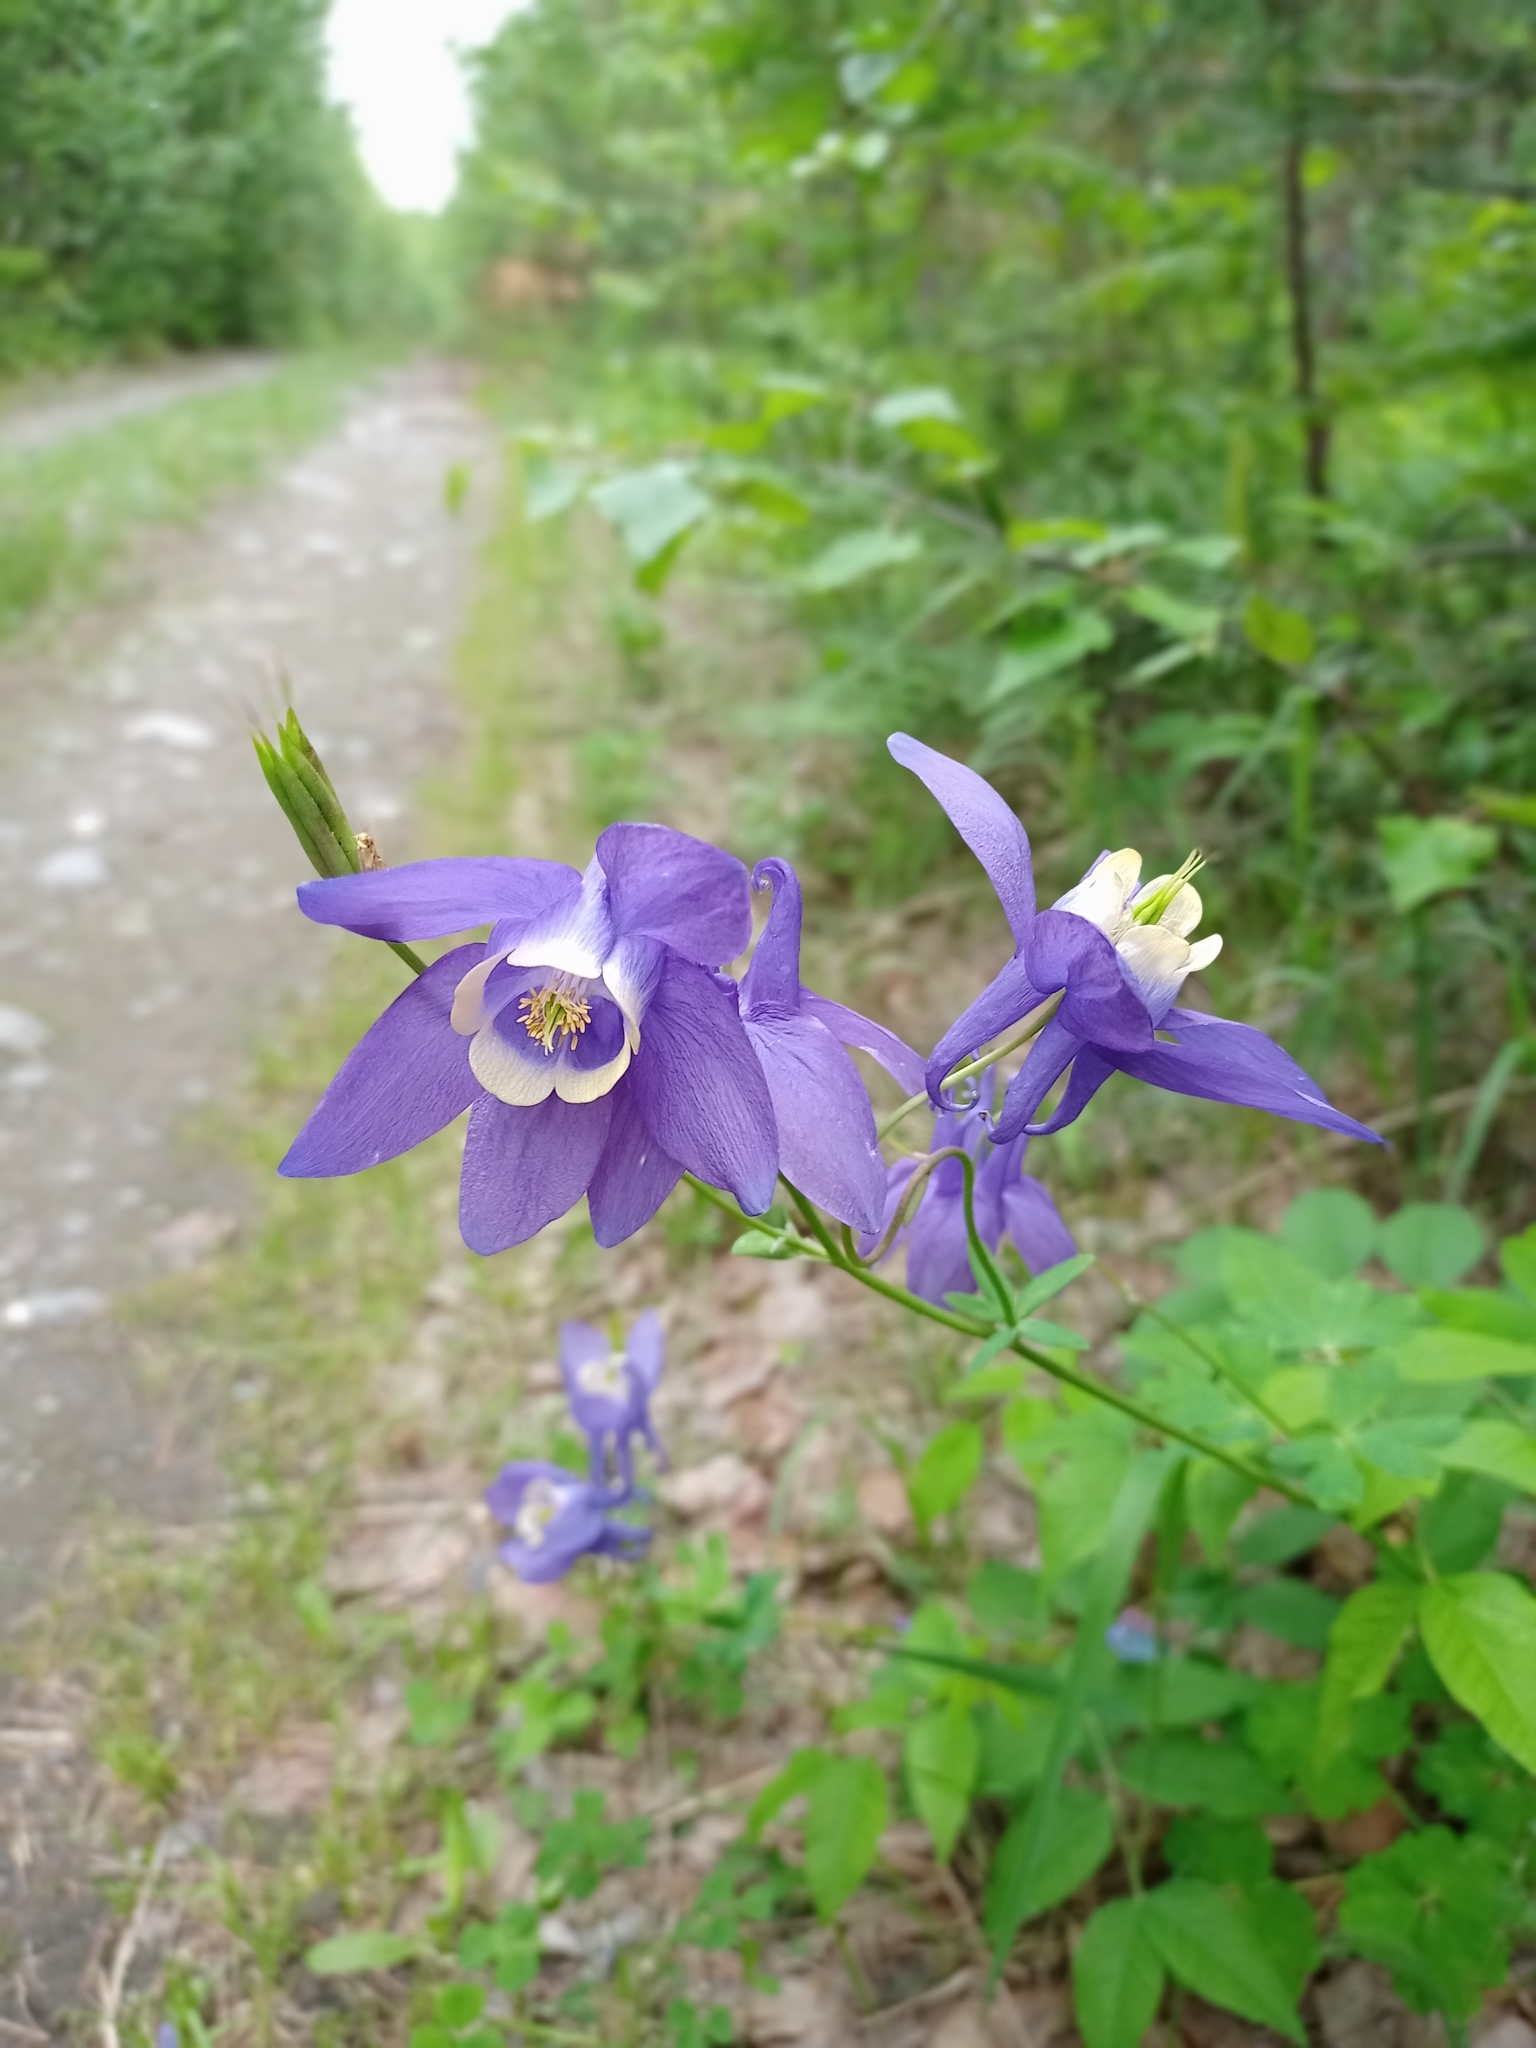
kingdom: Plantae
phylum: Tracheophyta
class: Magnoliopsida
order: Ranunculales
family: Ranunculaceae
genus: Aquilegia
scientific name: Aquilegia sibirica
